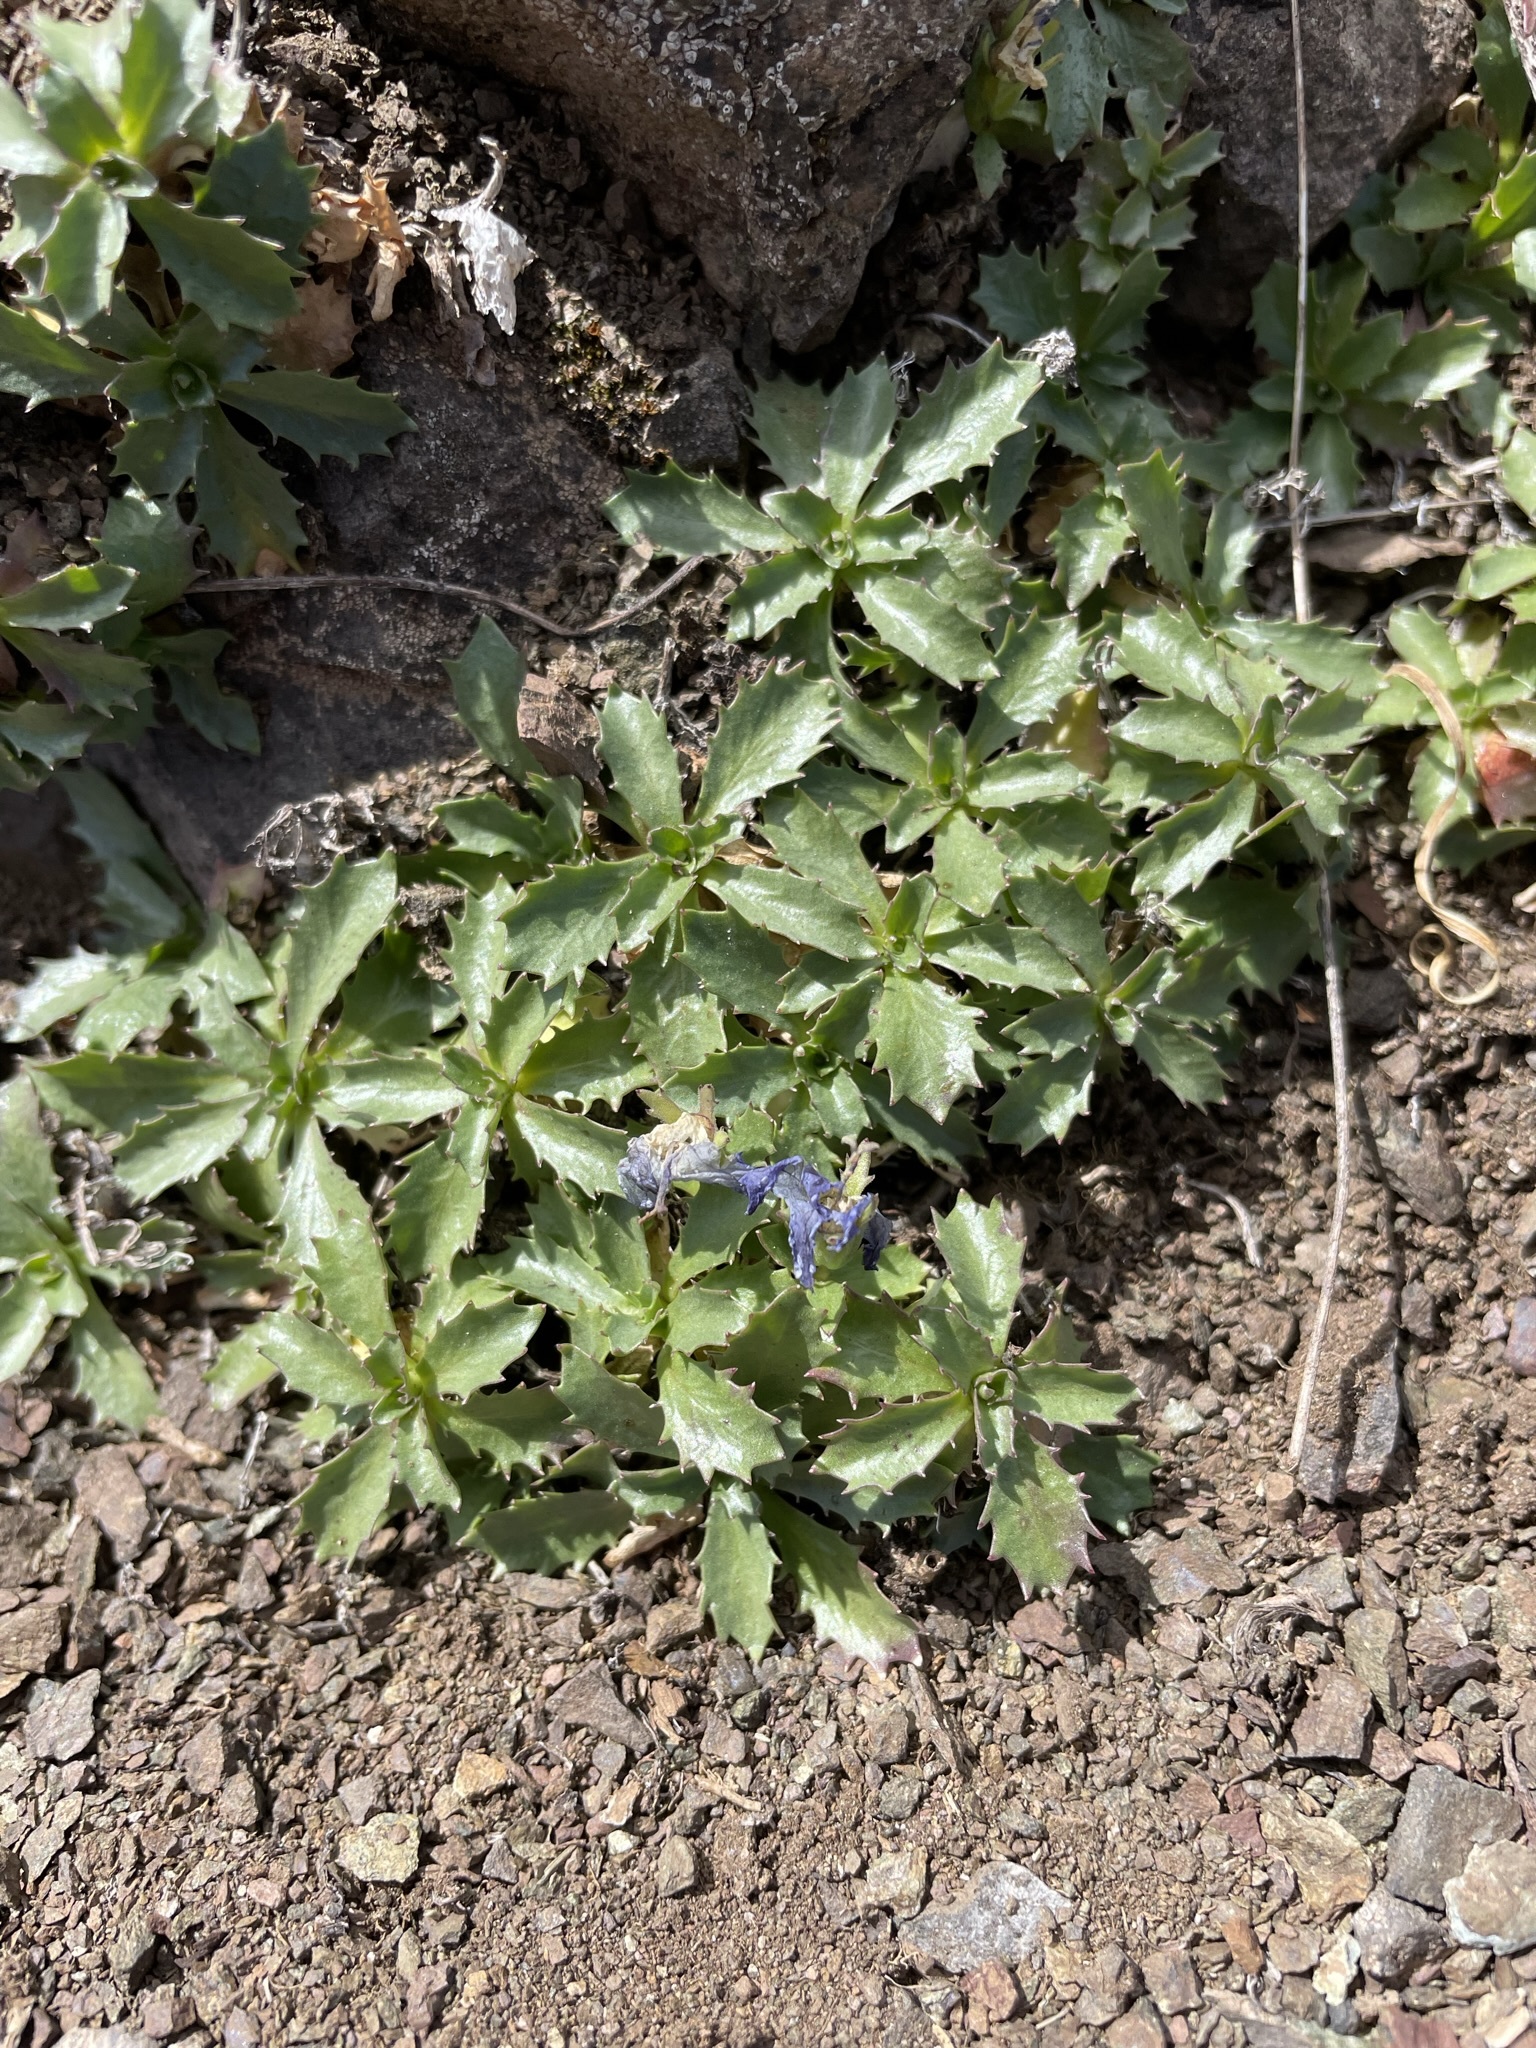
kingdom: Plantae
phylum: Tracheophyta
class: Magnoliopsida
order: Asterales
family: Campanulaceae
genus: Campanula
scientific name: Campanula piperi
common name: Olympic bellflower
